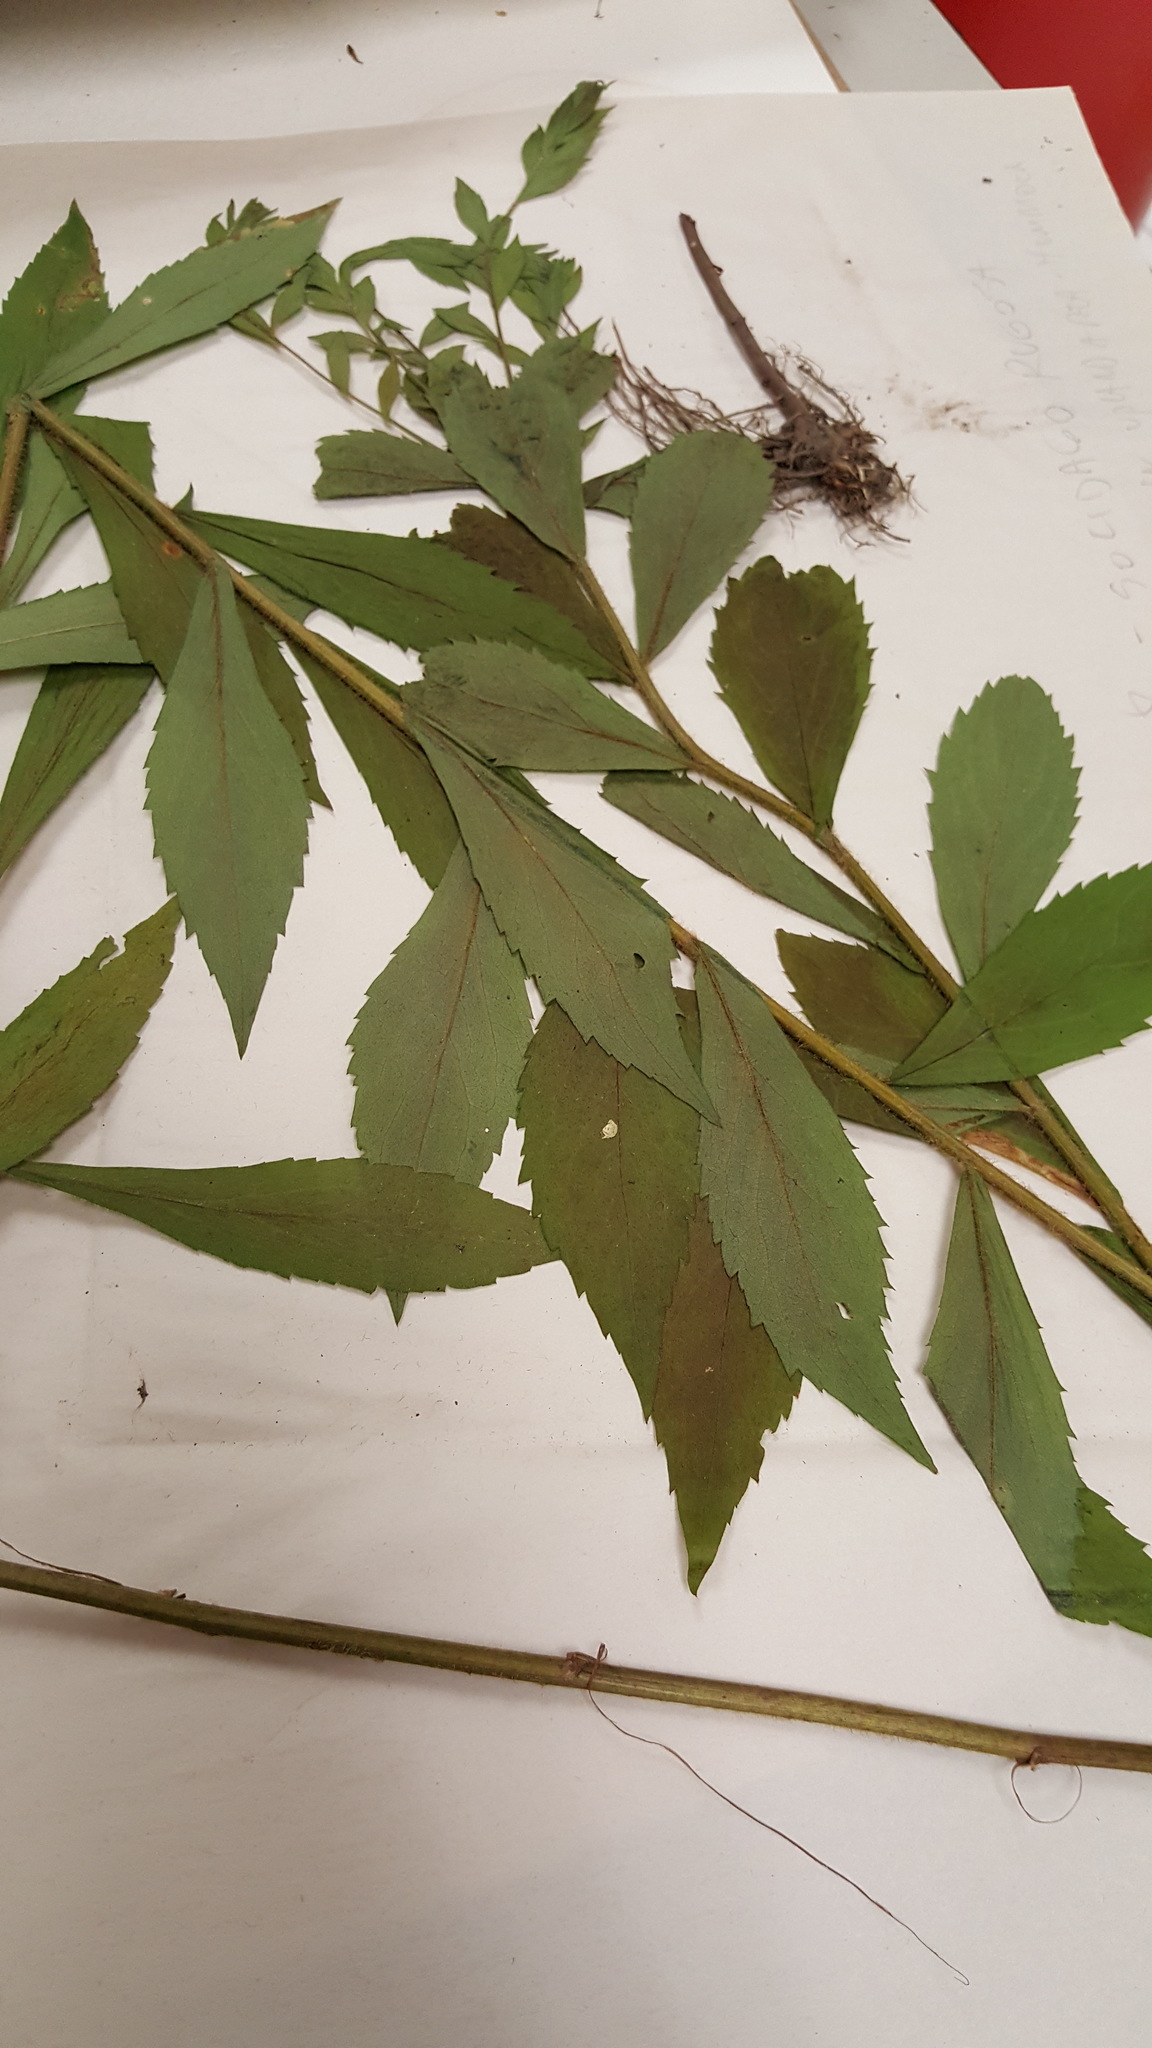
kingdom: Plantae
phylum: Tracheophyta
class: Magnoliopsida
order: Asterales
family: Asteraceae
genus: Solidago
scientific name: Solidago rugosa
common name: Rough-stemmed goldenrod
